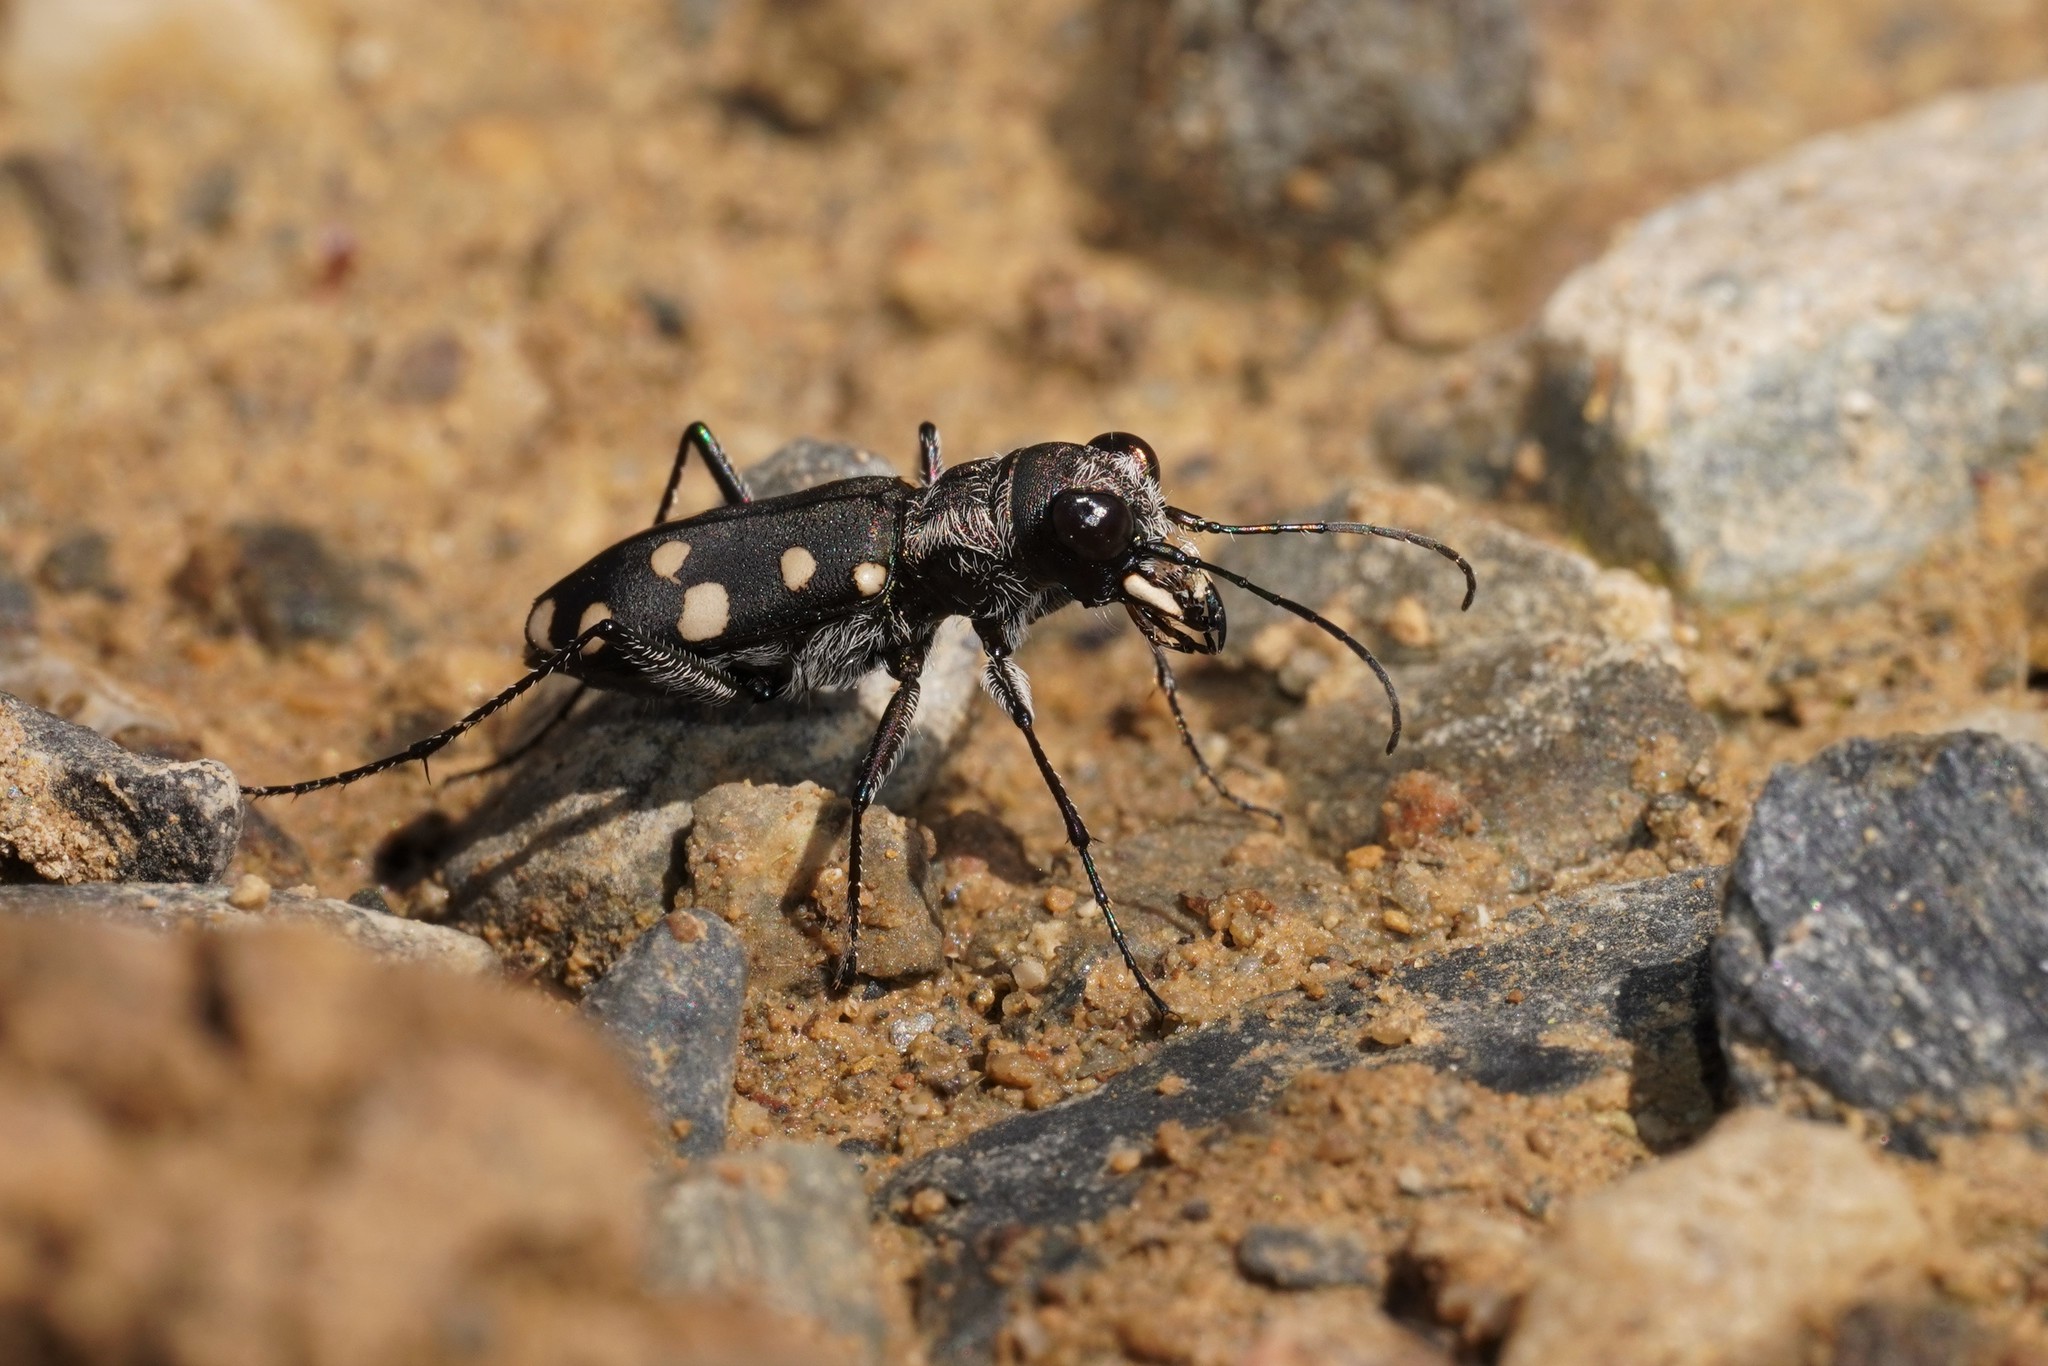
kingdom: Animalia
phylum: Arthropoda
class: Insecta
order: Coleoptera
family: Carabidae
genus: Cephalota
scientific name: Cephalota maura
